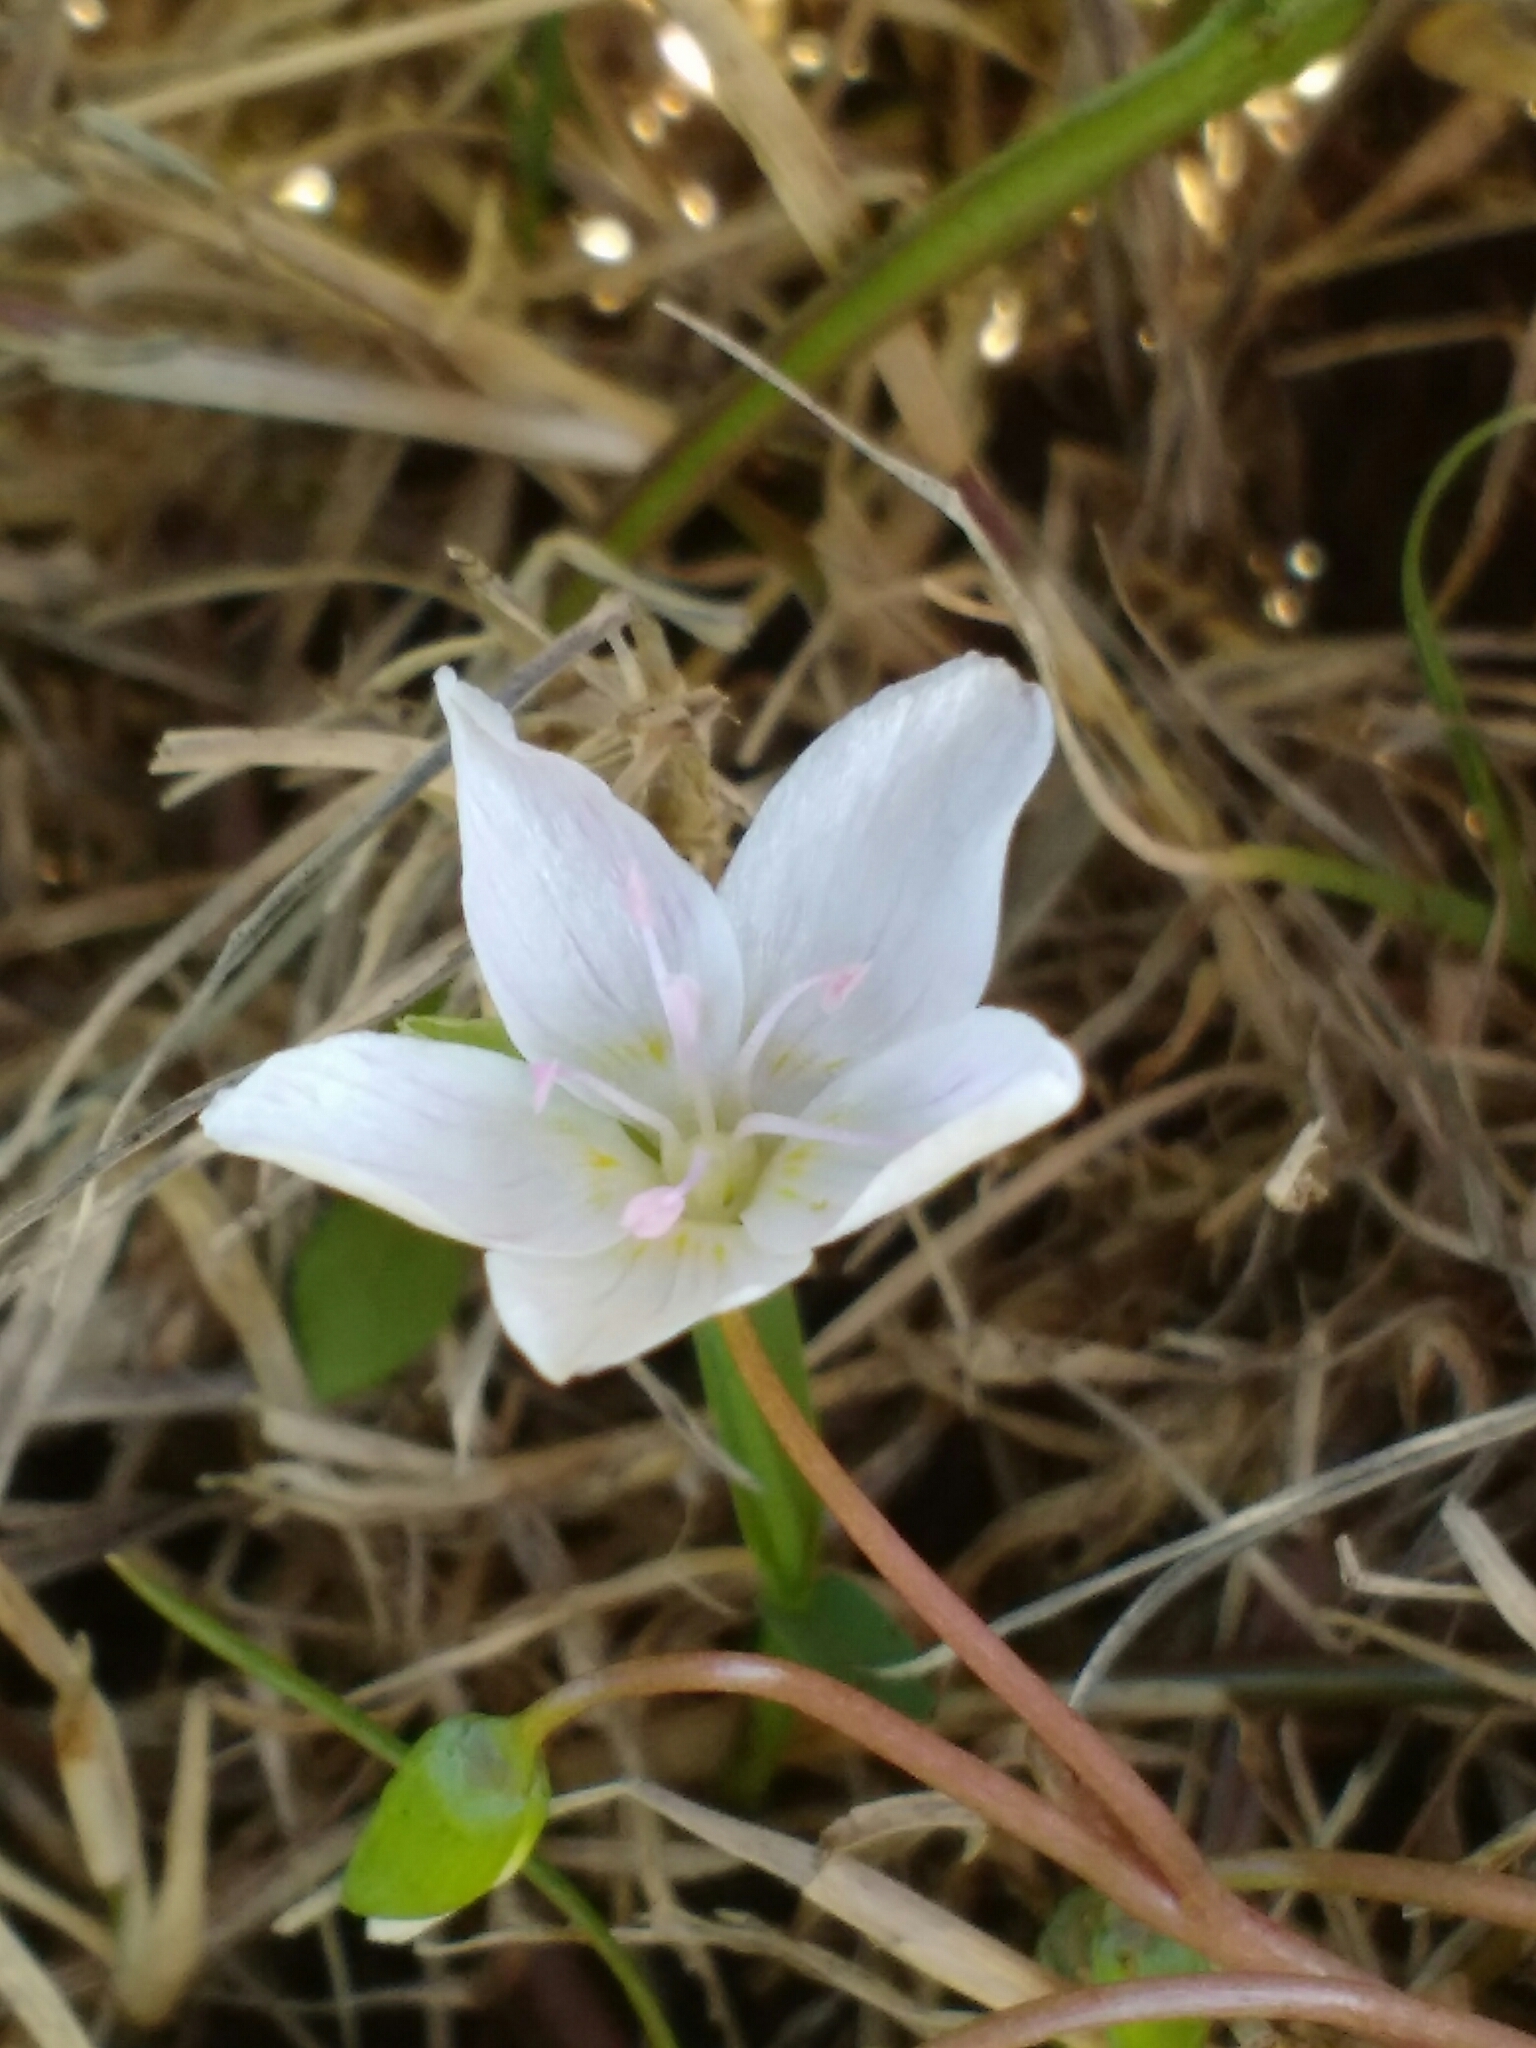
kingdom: Plantae
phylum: Tracheophyta
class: Magnoliopsida
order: Caryophyllales
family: Montiaceae
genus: Claytonia
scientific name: Claytonia virginica
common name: Virginia springbeauty
